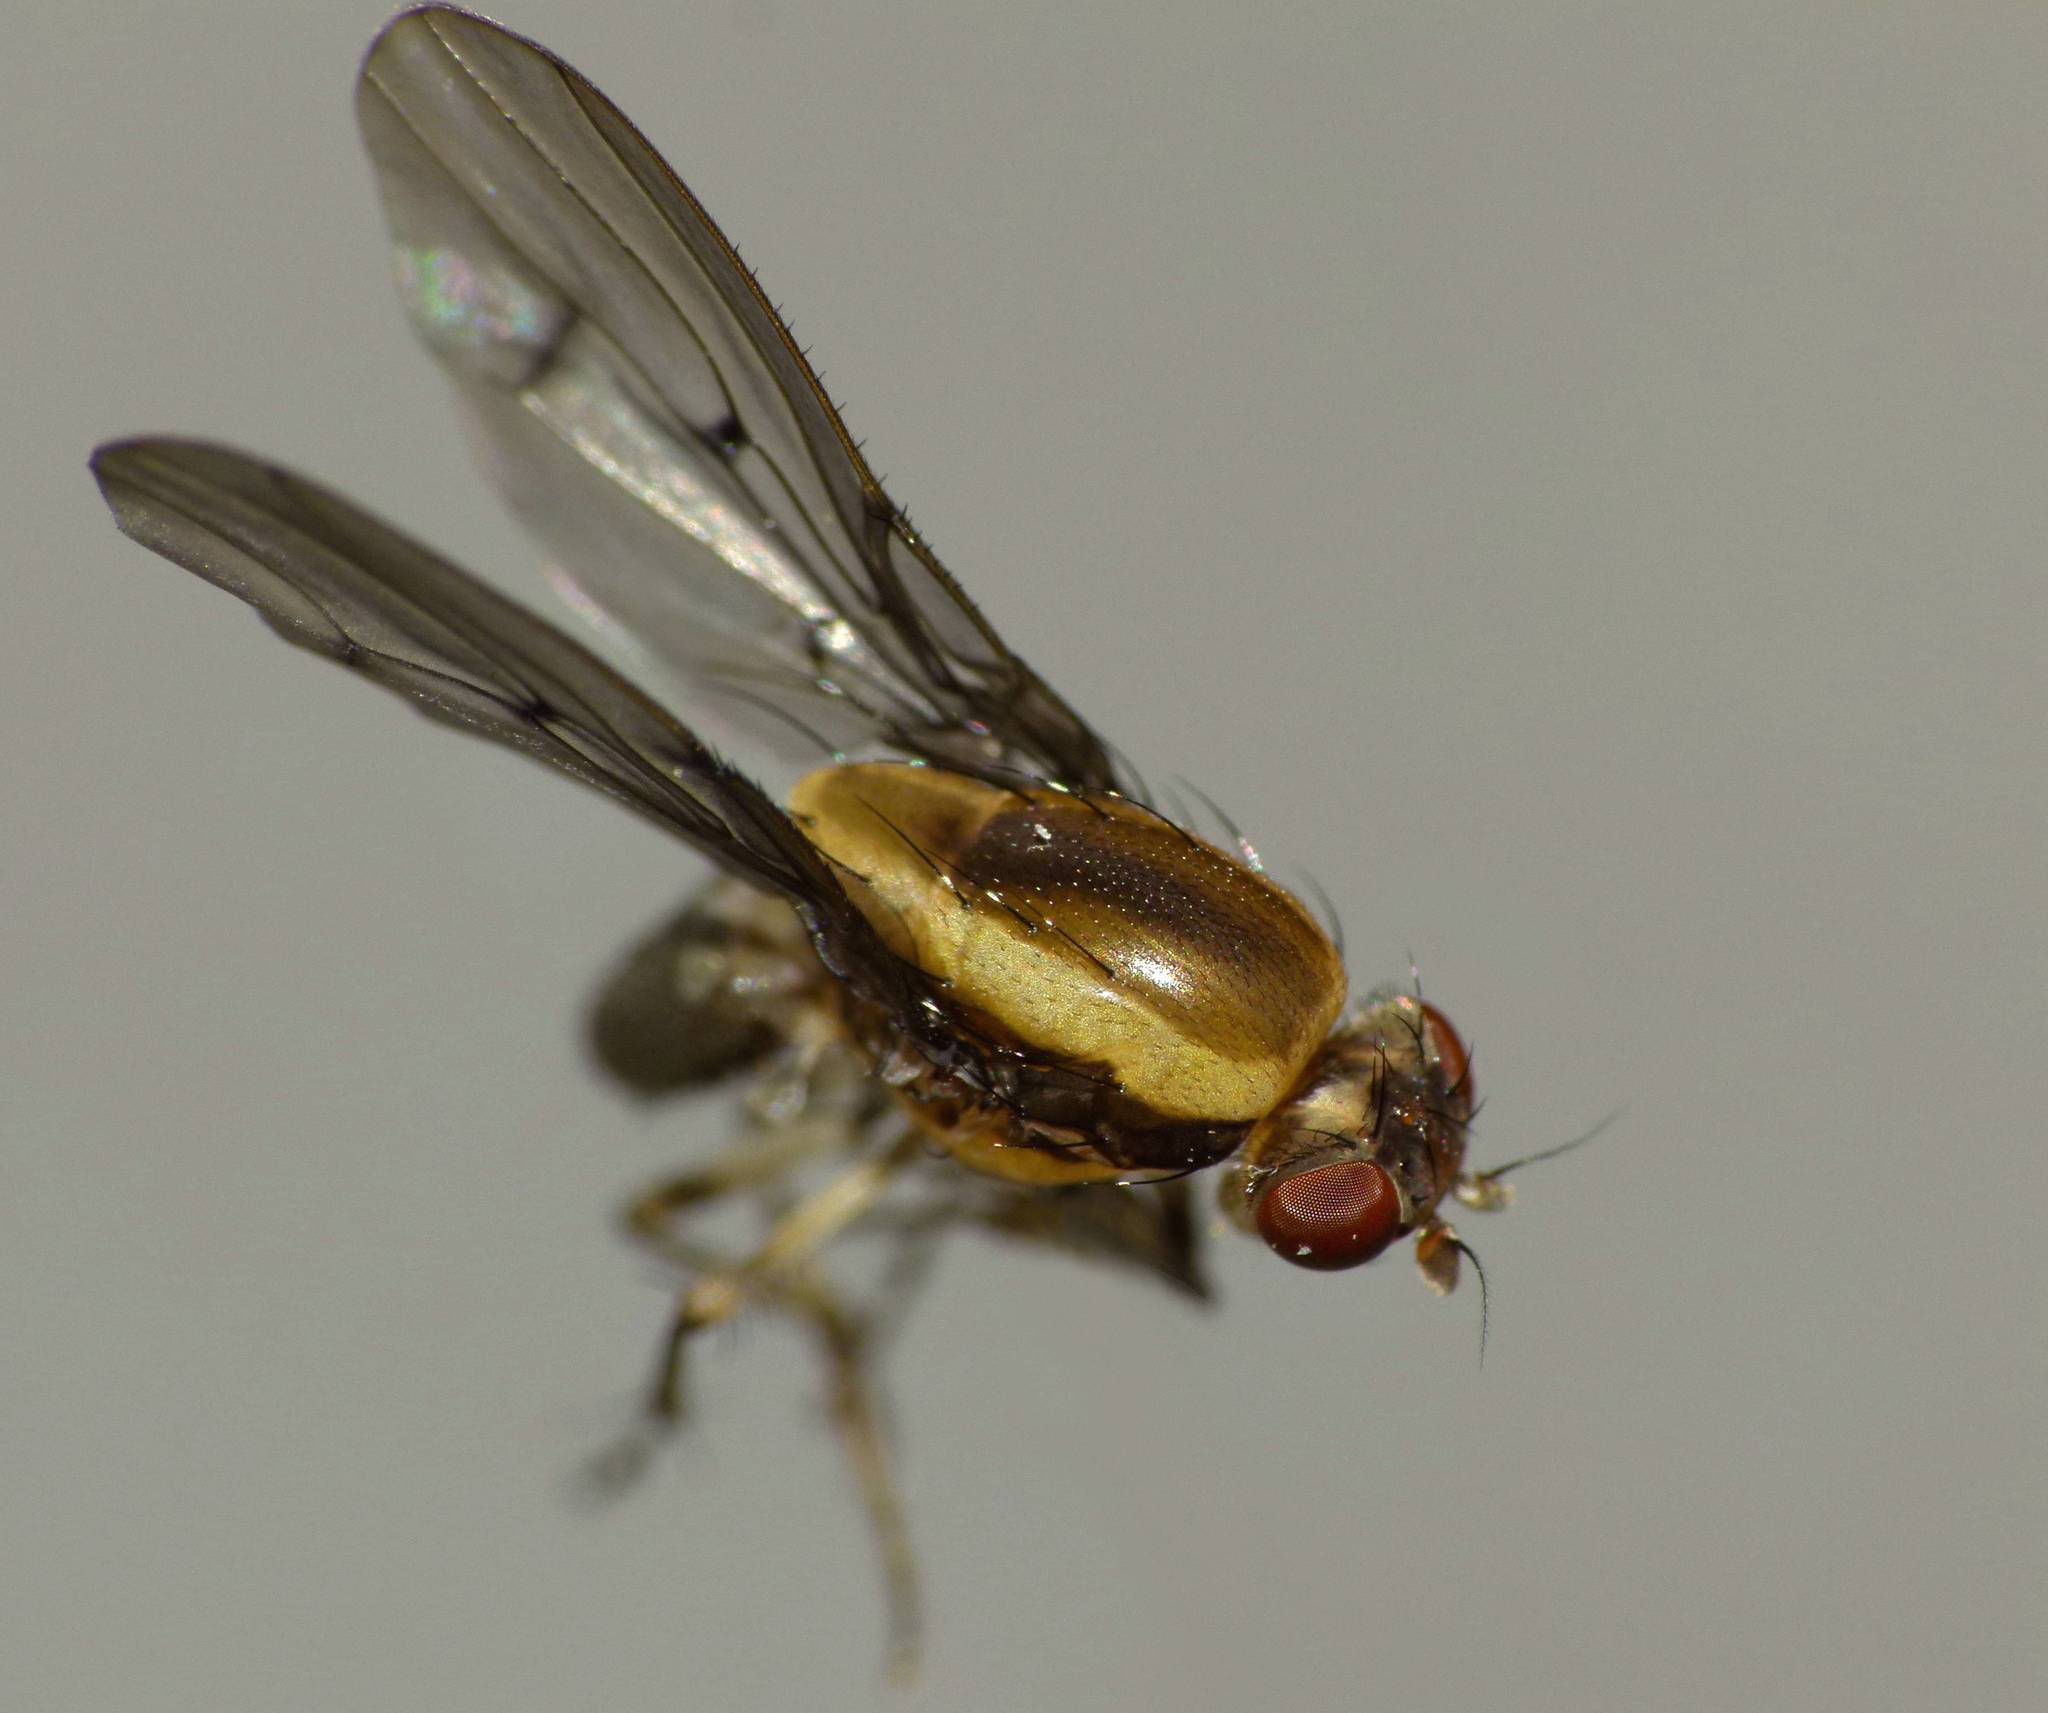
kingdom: Animalia
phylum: Arthropoda
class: Insecta
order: Diptera
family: Heleomyzidae
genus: Allophylopsis
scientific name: Allophylopsis scutellata
